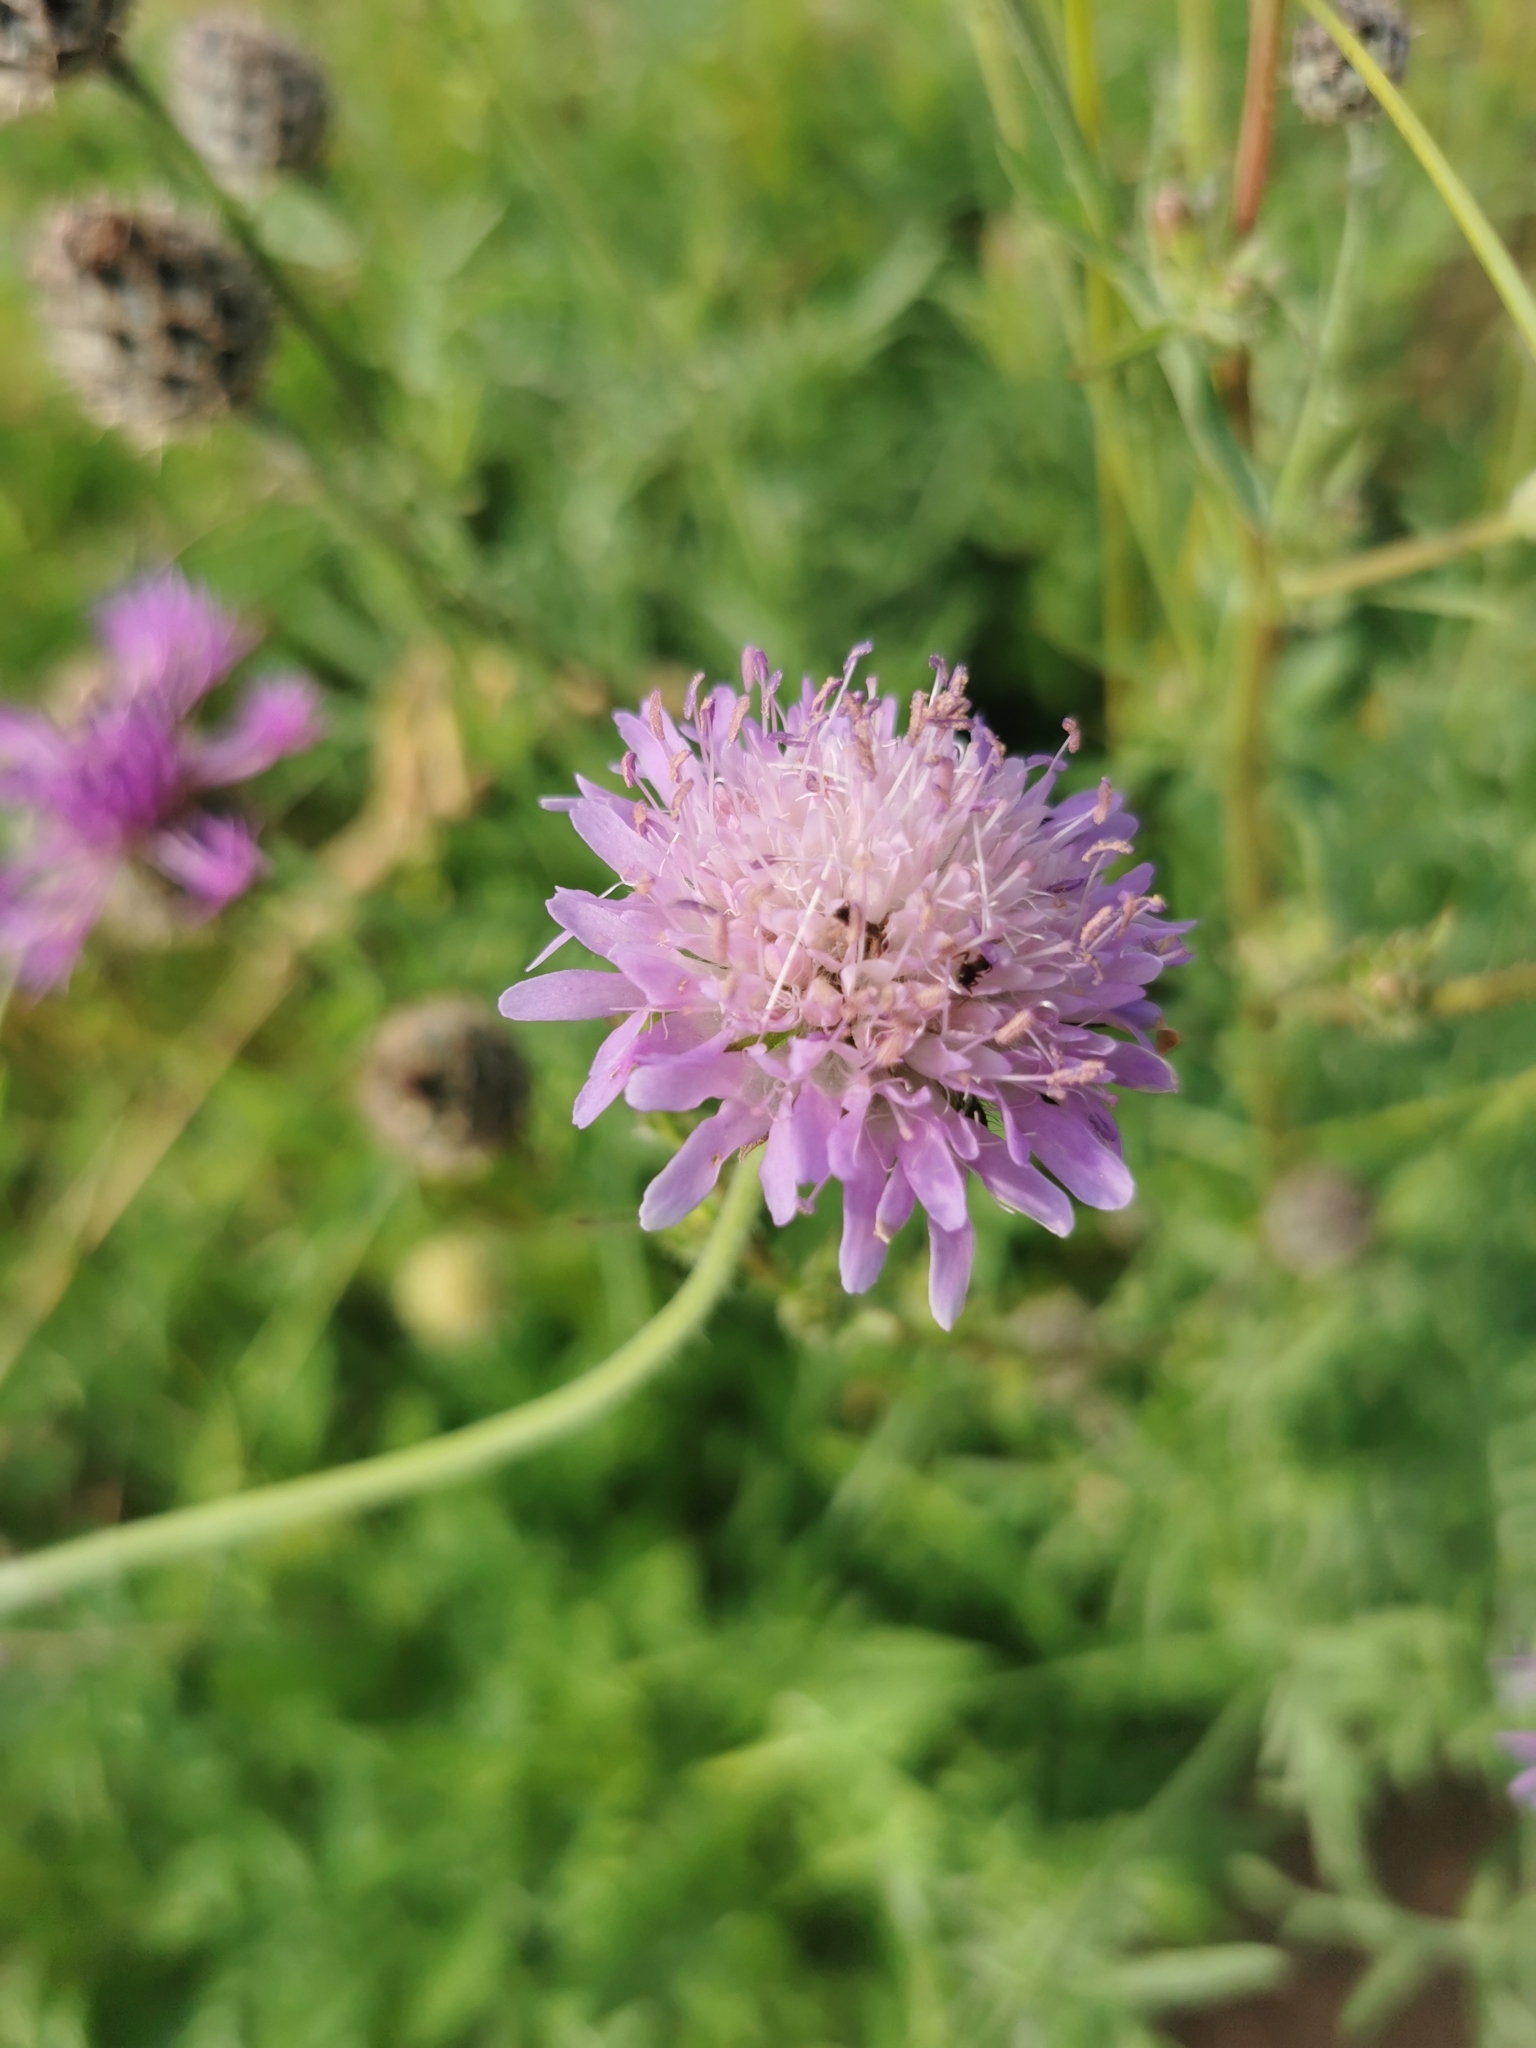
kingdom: Plantae
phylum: Tracheophyta
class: Magnoliopsida
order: Dipsacales
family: Caprifoliaceae
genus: Knautia
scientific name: Knautia arvensis
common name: Field scabiosa
